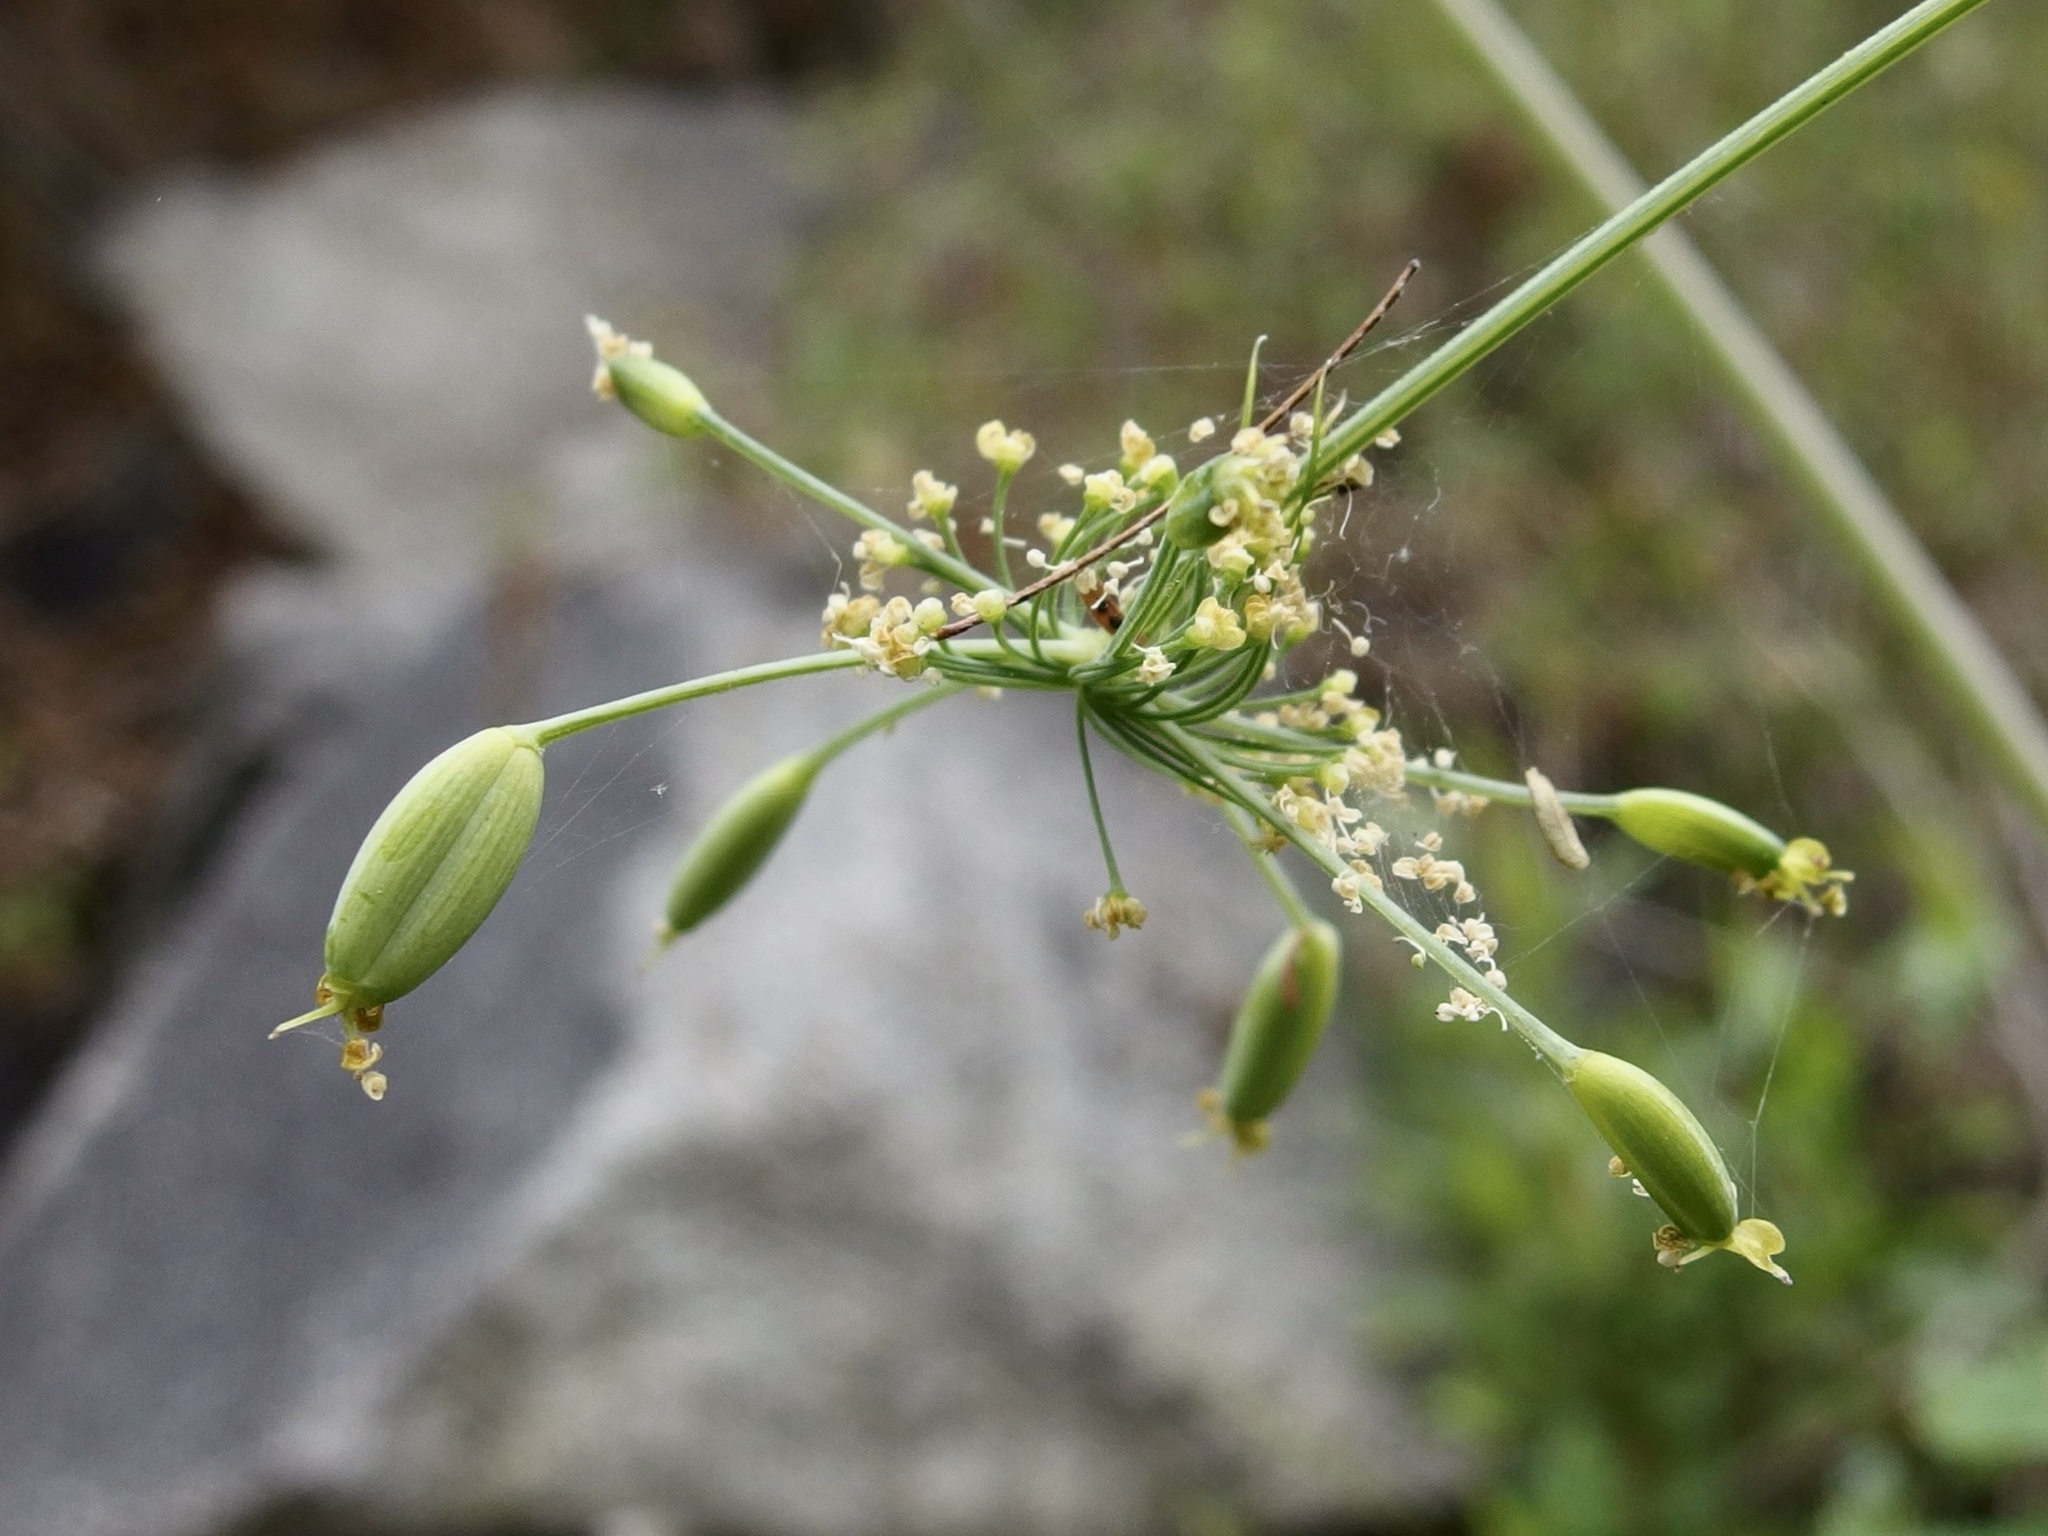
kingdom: Plantae
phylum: Tracheophyta
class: Magnoliopsida
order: Apiales
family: Apiaceae
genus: Arracacia
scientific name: Arracacia brandegeei
